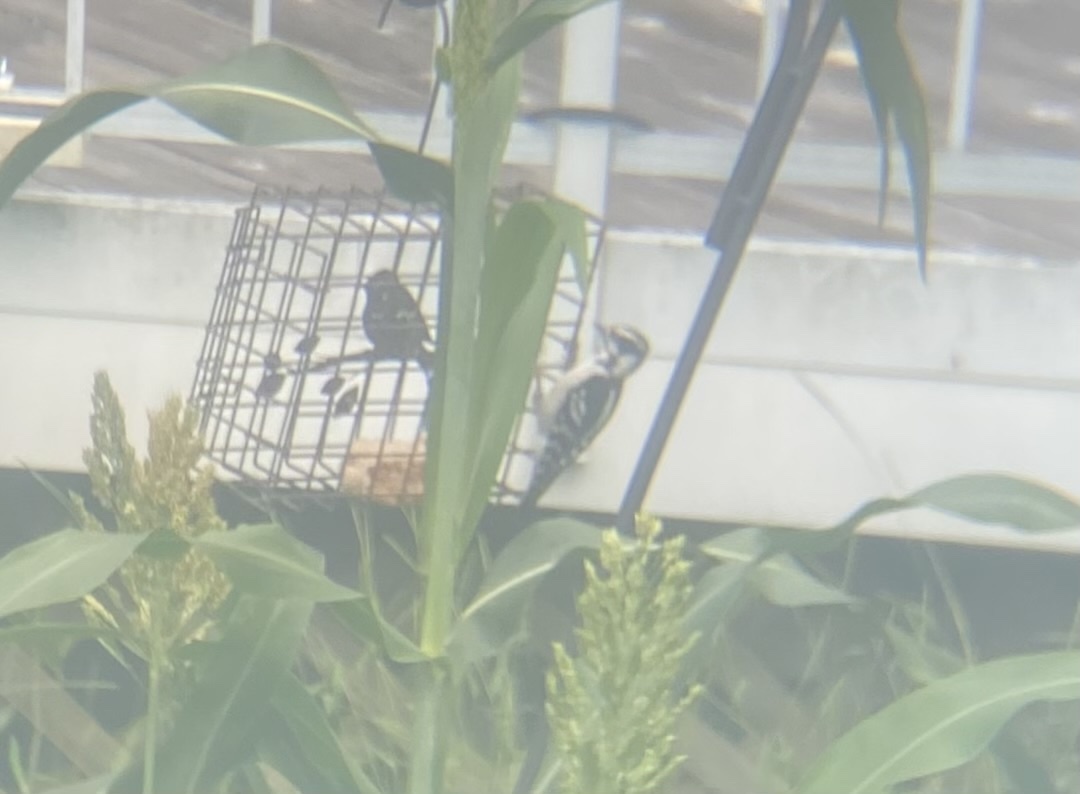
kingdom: Animalia
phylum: Chordata
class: Aves
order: Piciformes
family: Picidae
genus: Dryobates
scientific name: Dryobates pubescens
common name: Downy woodpecker
